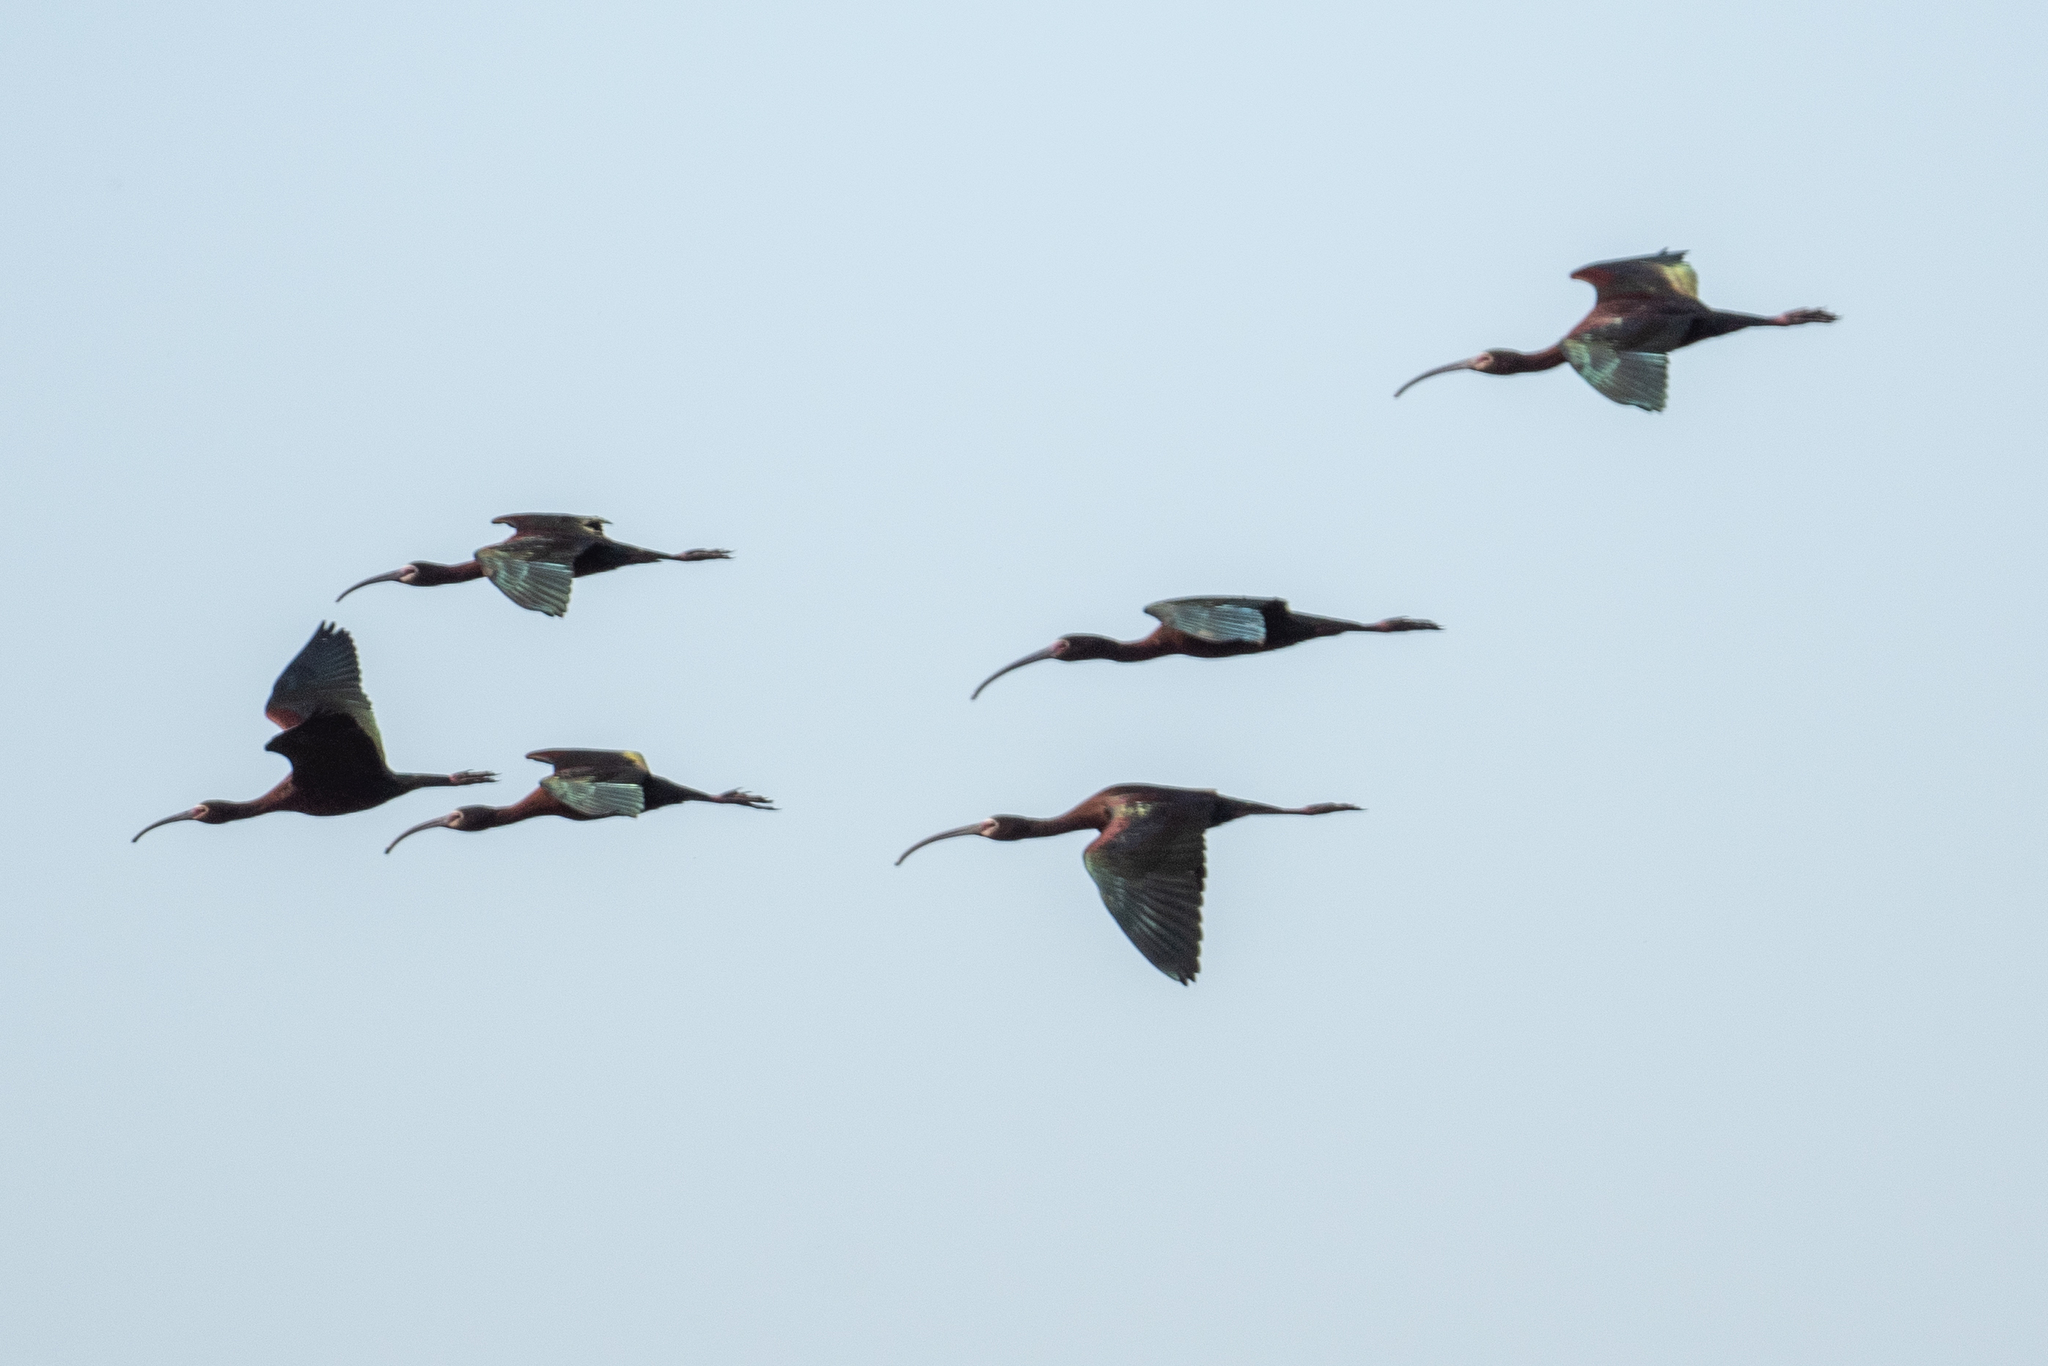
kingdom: Animalia
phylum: Chordata
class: Aves
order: Pelecaniformes
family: Threskiornithidae
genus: Plegadis
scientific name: Plegadis chihi
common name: White-faced ibis
